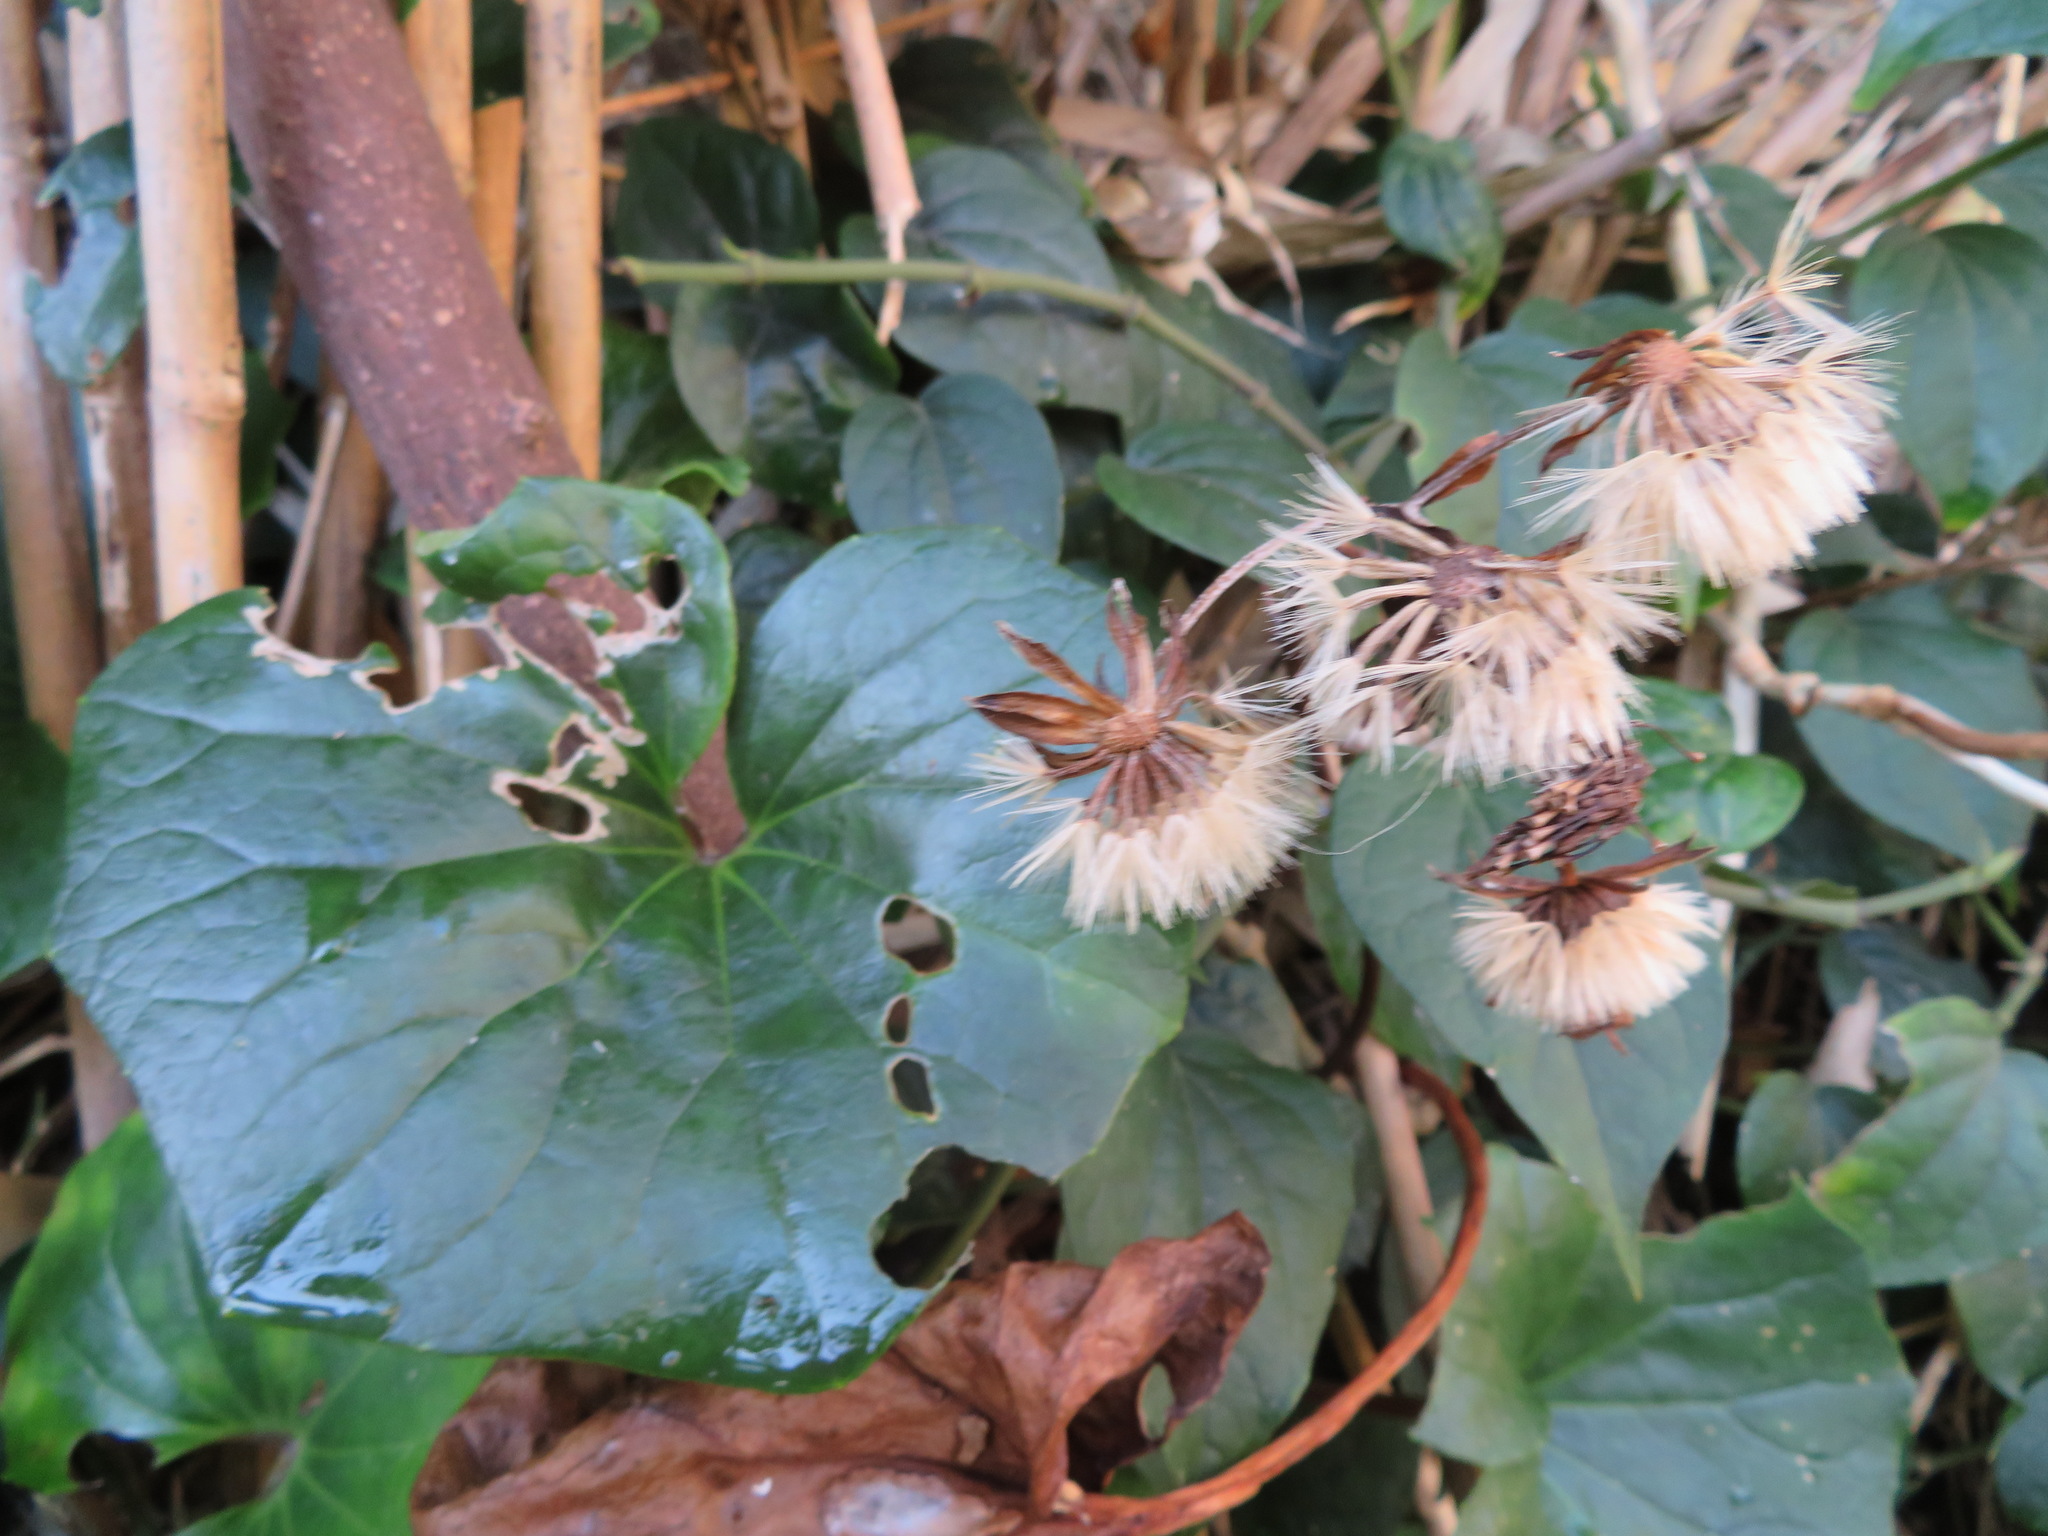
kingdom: Plantae
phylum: Tracheophyta
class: Magnoliopsida
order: Asterales
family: Asteraceae
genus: Farfugium
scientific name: Farfugium japonicum
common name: Leopardplant
